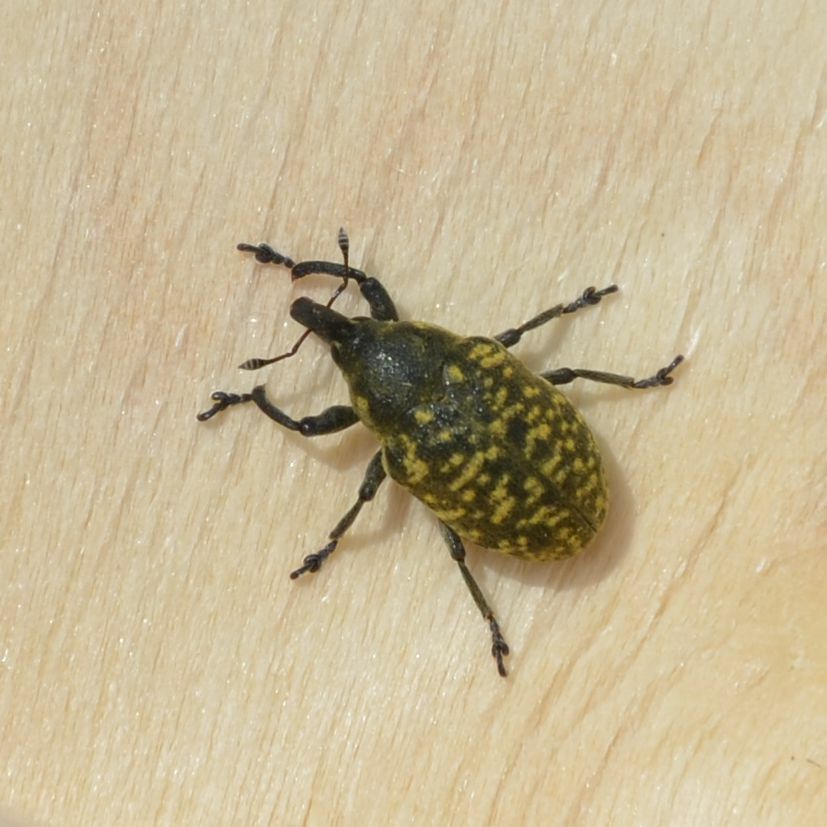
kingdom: Animalia
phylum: Arthropoda
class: Insecta
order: Coleoptera
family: Curculionidae
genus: Larinus
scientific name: Larinus turbinatus
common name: Weevil
